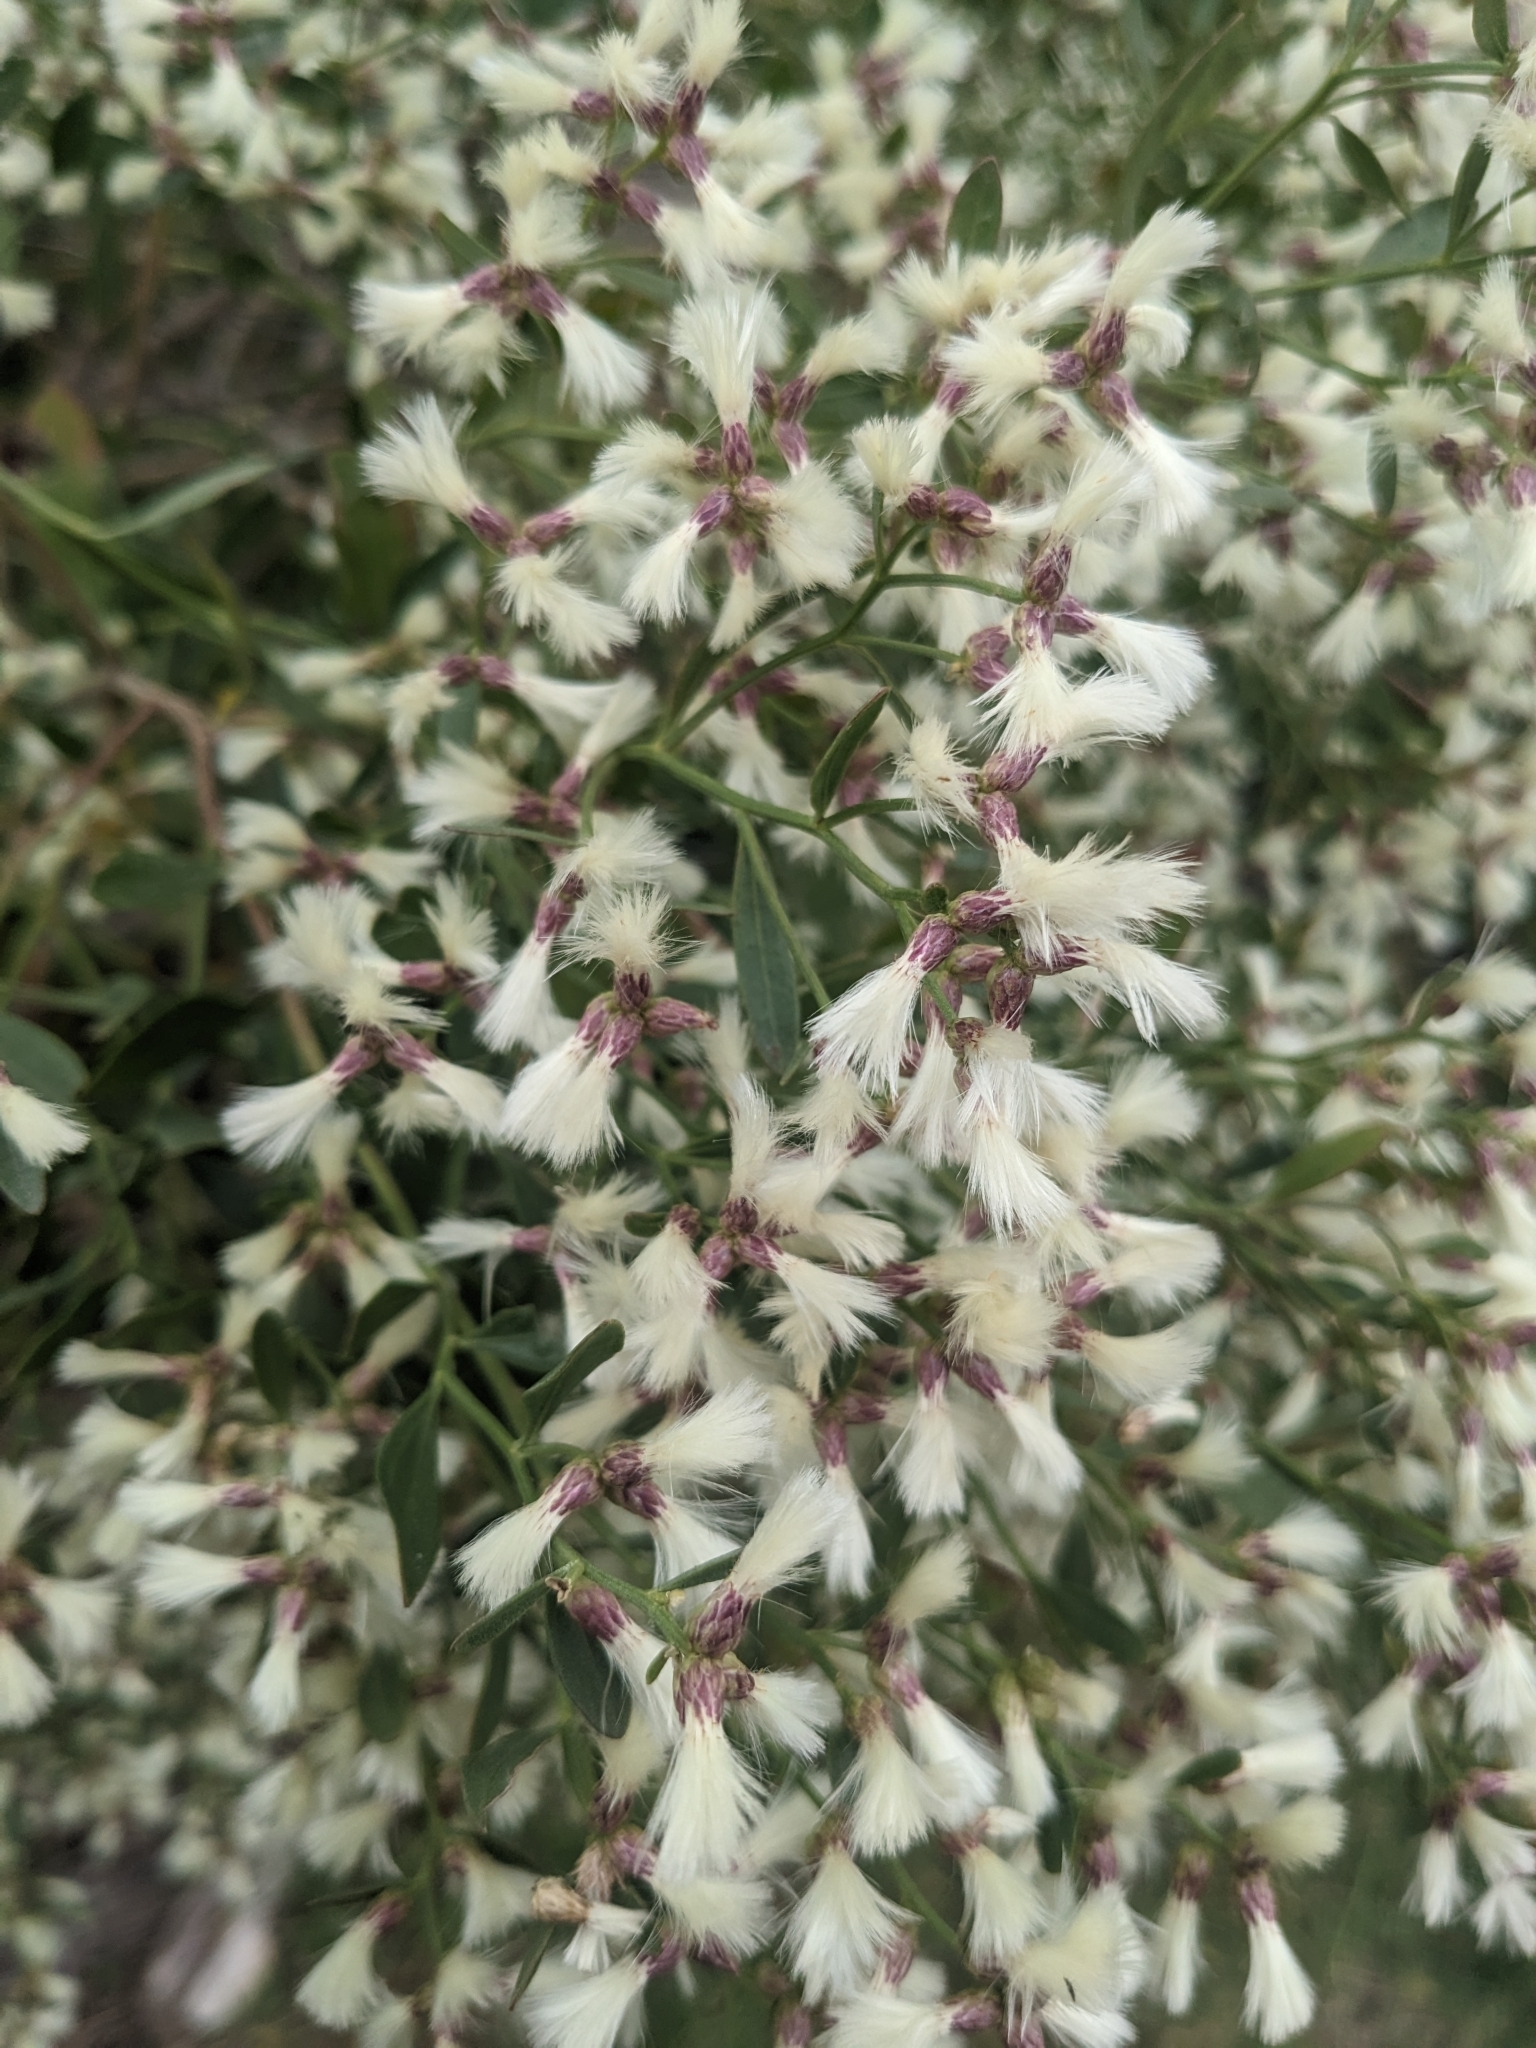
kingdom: Plantae
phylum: Tracheophyta
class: Magnoliopsida
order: Asterales
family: Asteraceae
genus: Baccharis
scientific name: Baccharis halimifolia
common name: Eastern baccharis
